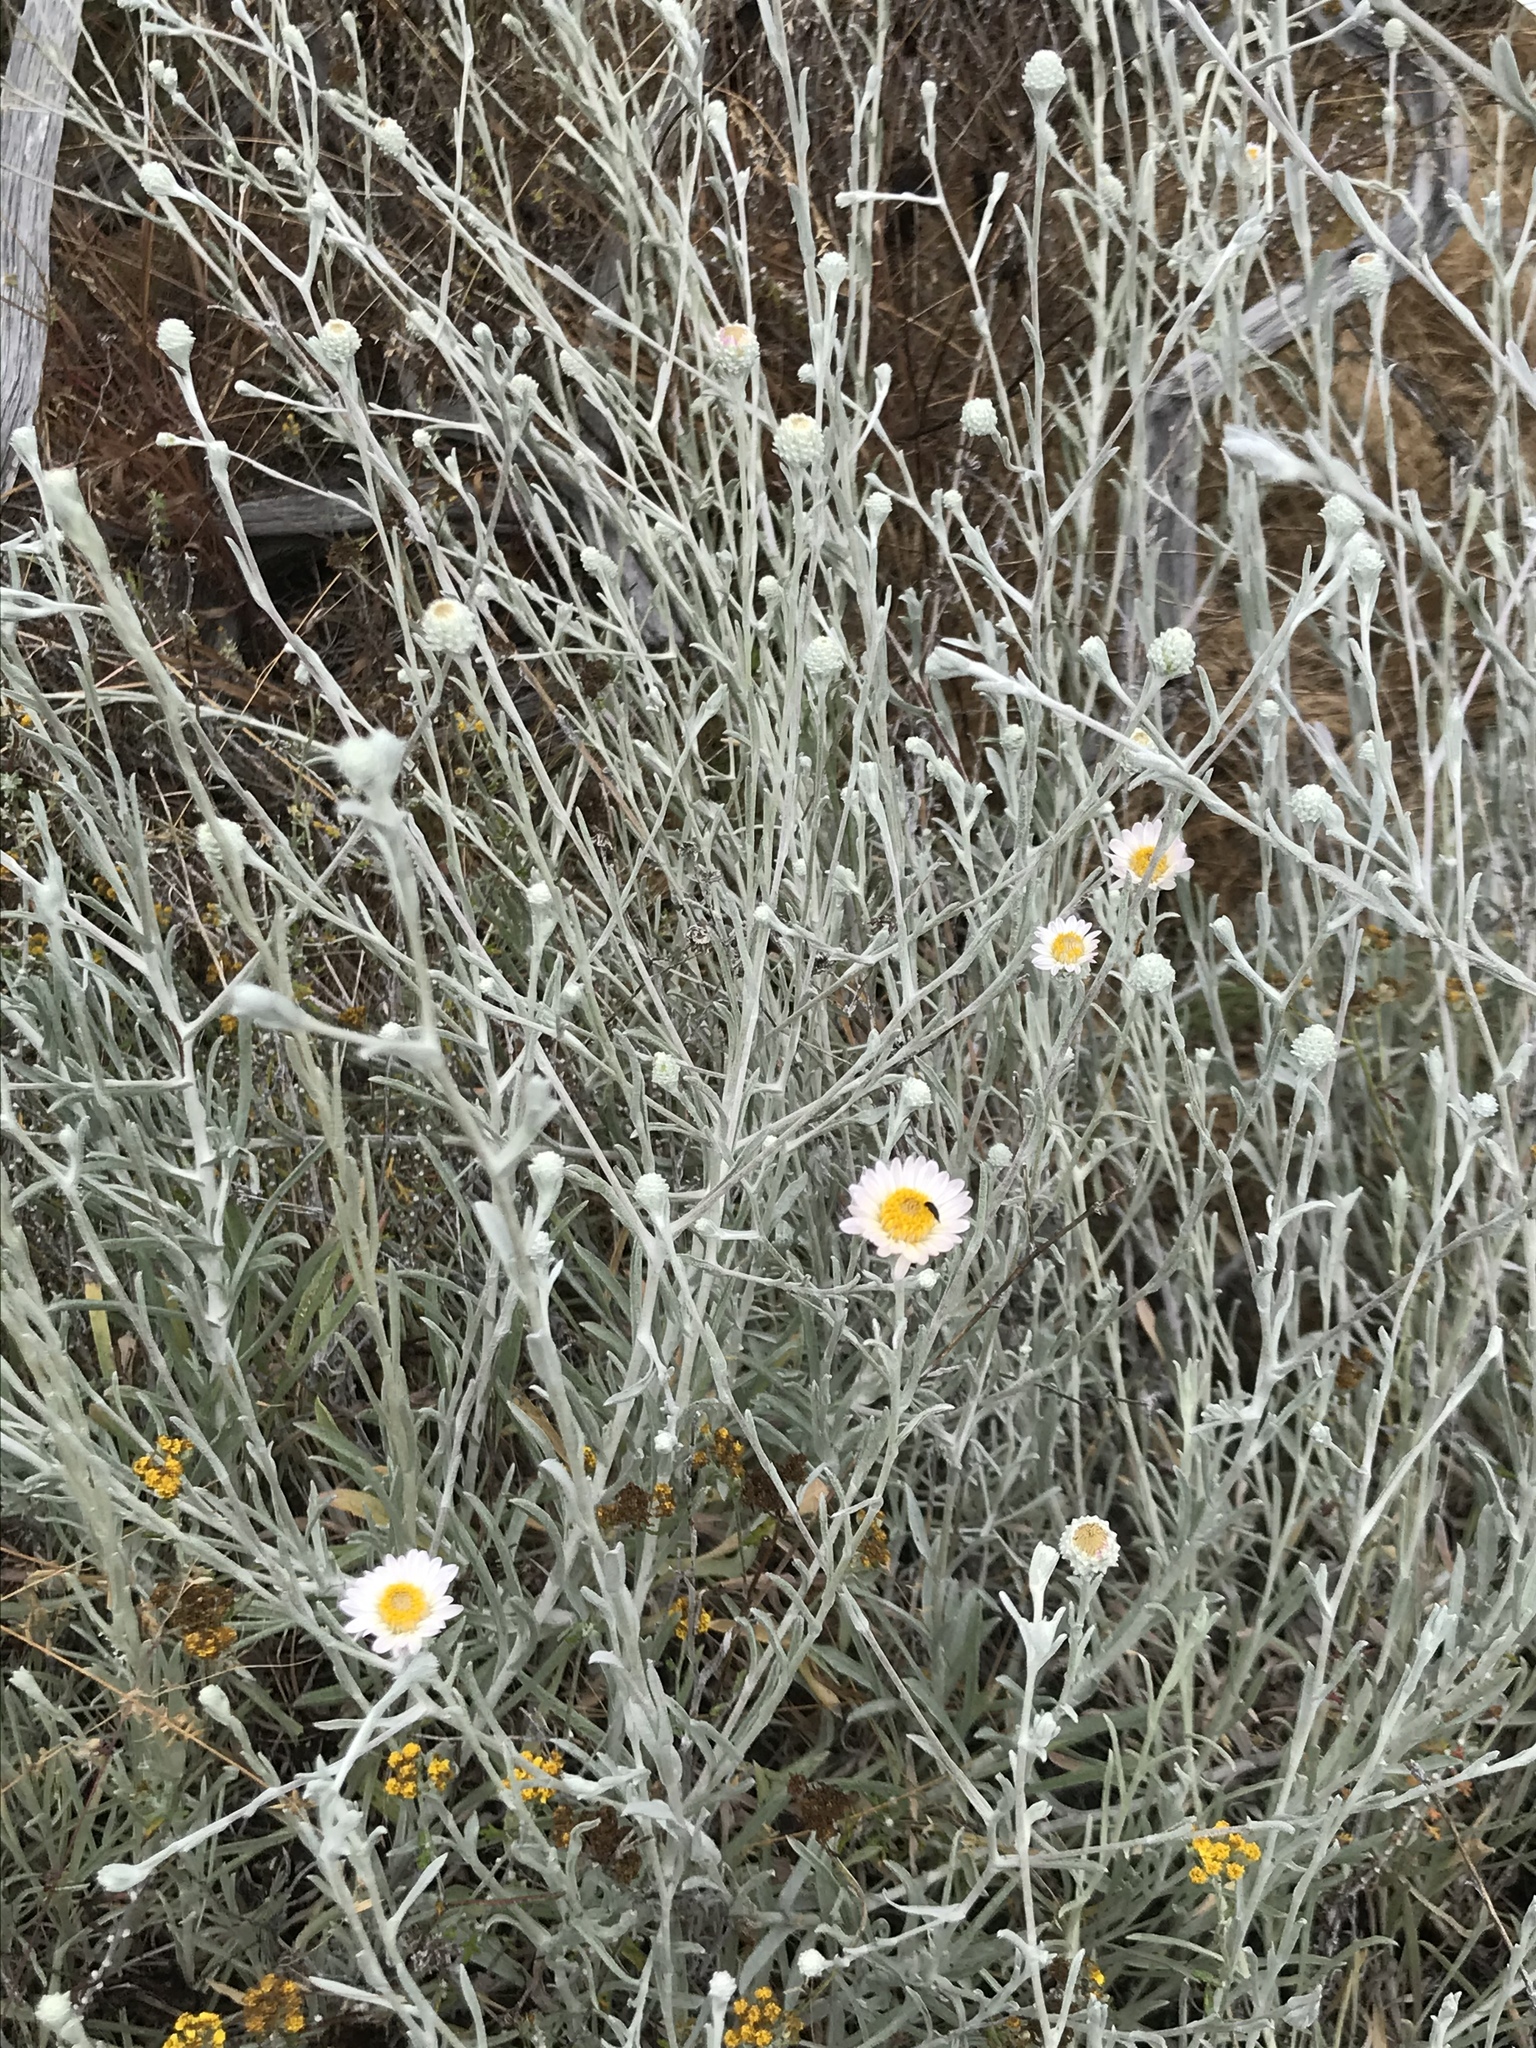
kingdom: Plantae
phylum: Tracheophyta
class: Magnoliopsida
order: Asterales
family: Asteraceae
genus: Corethrogyne
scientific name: Corethrogyne filaginifolia
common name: Sand-aster
